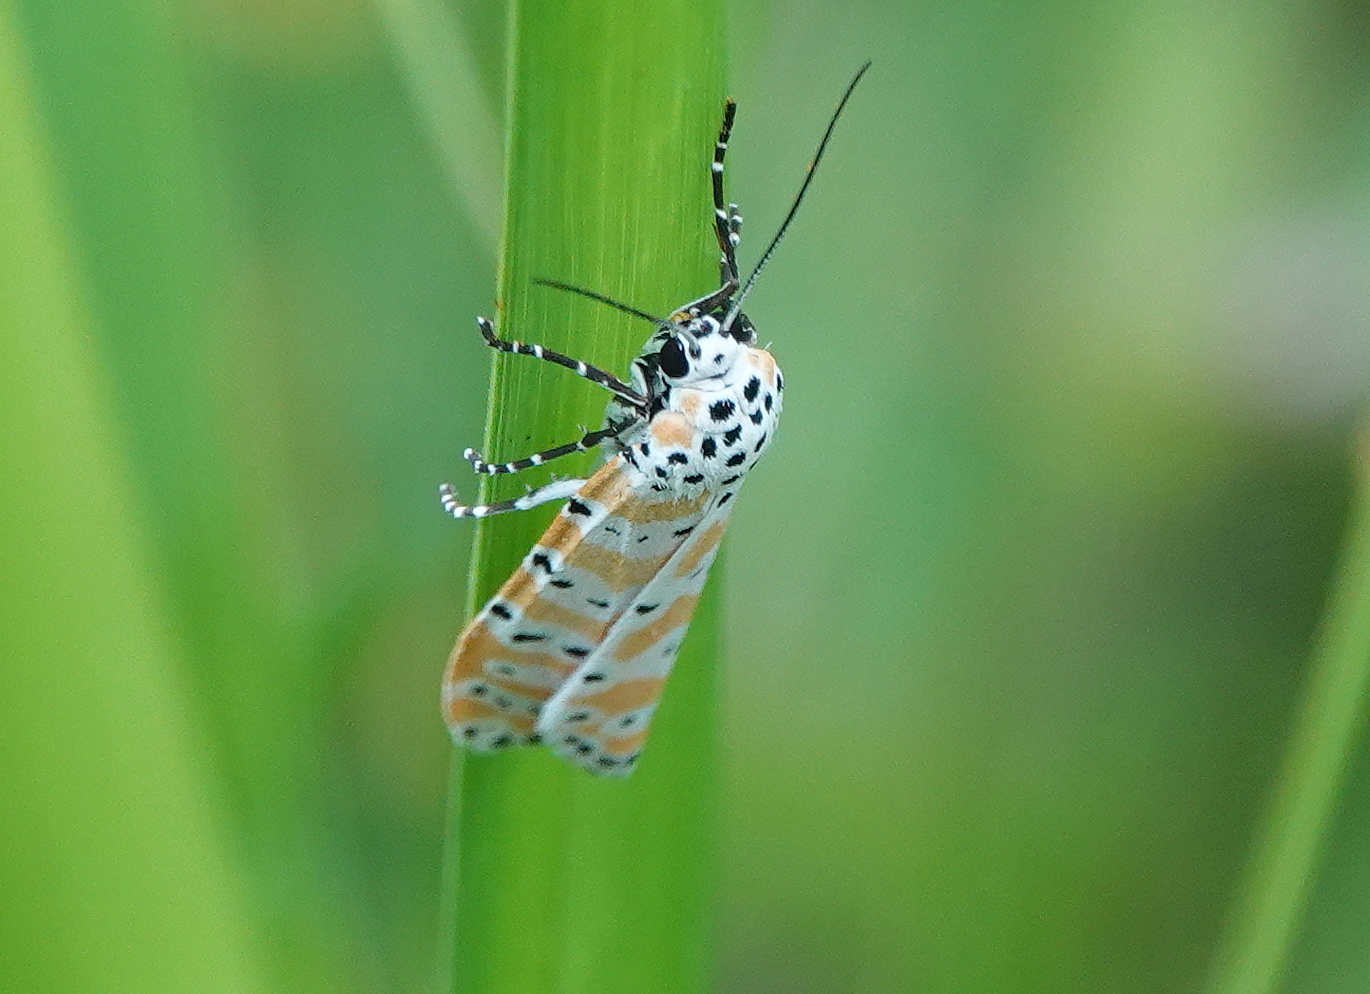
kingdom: Animalia
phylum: Arthropoda
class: Insecta
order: Lepidoptera
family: Erebidae
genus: Utetheisa
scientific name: Utetheisa ornatrix
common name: Beautiful utetheisa
